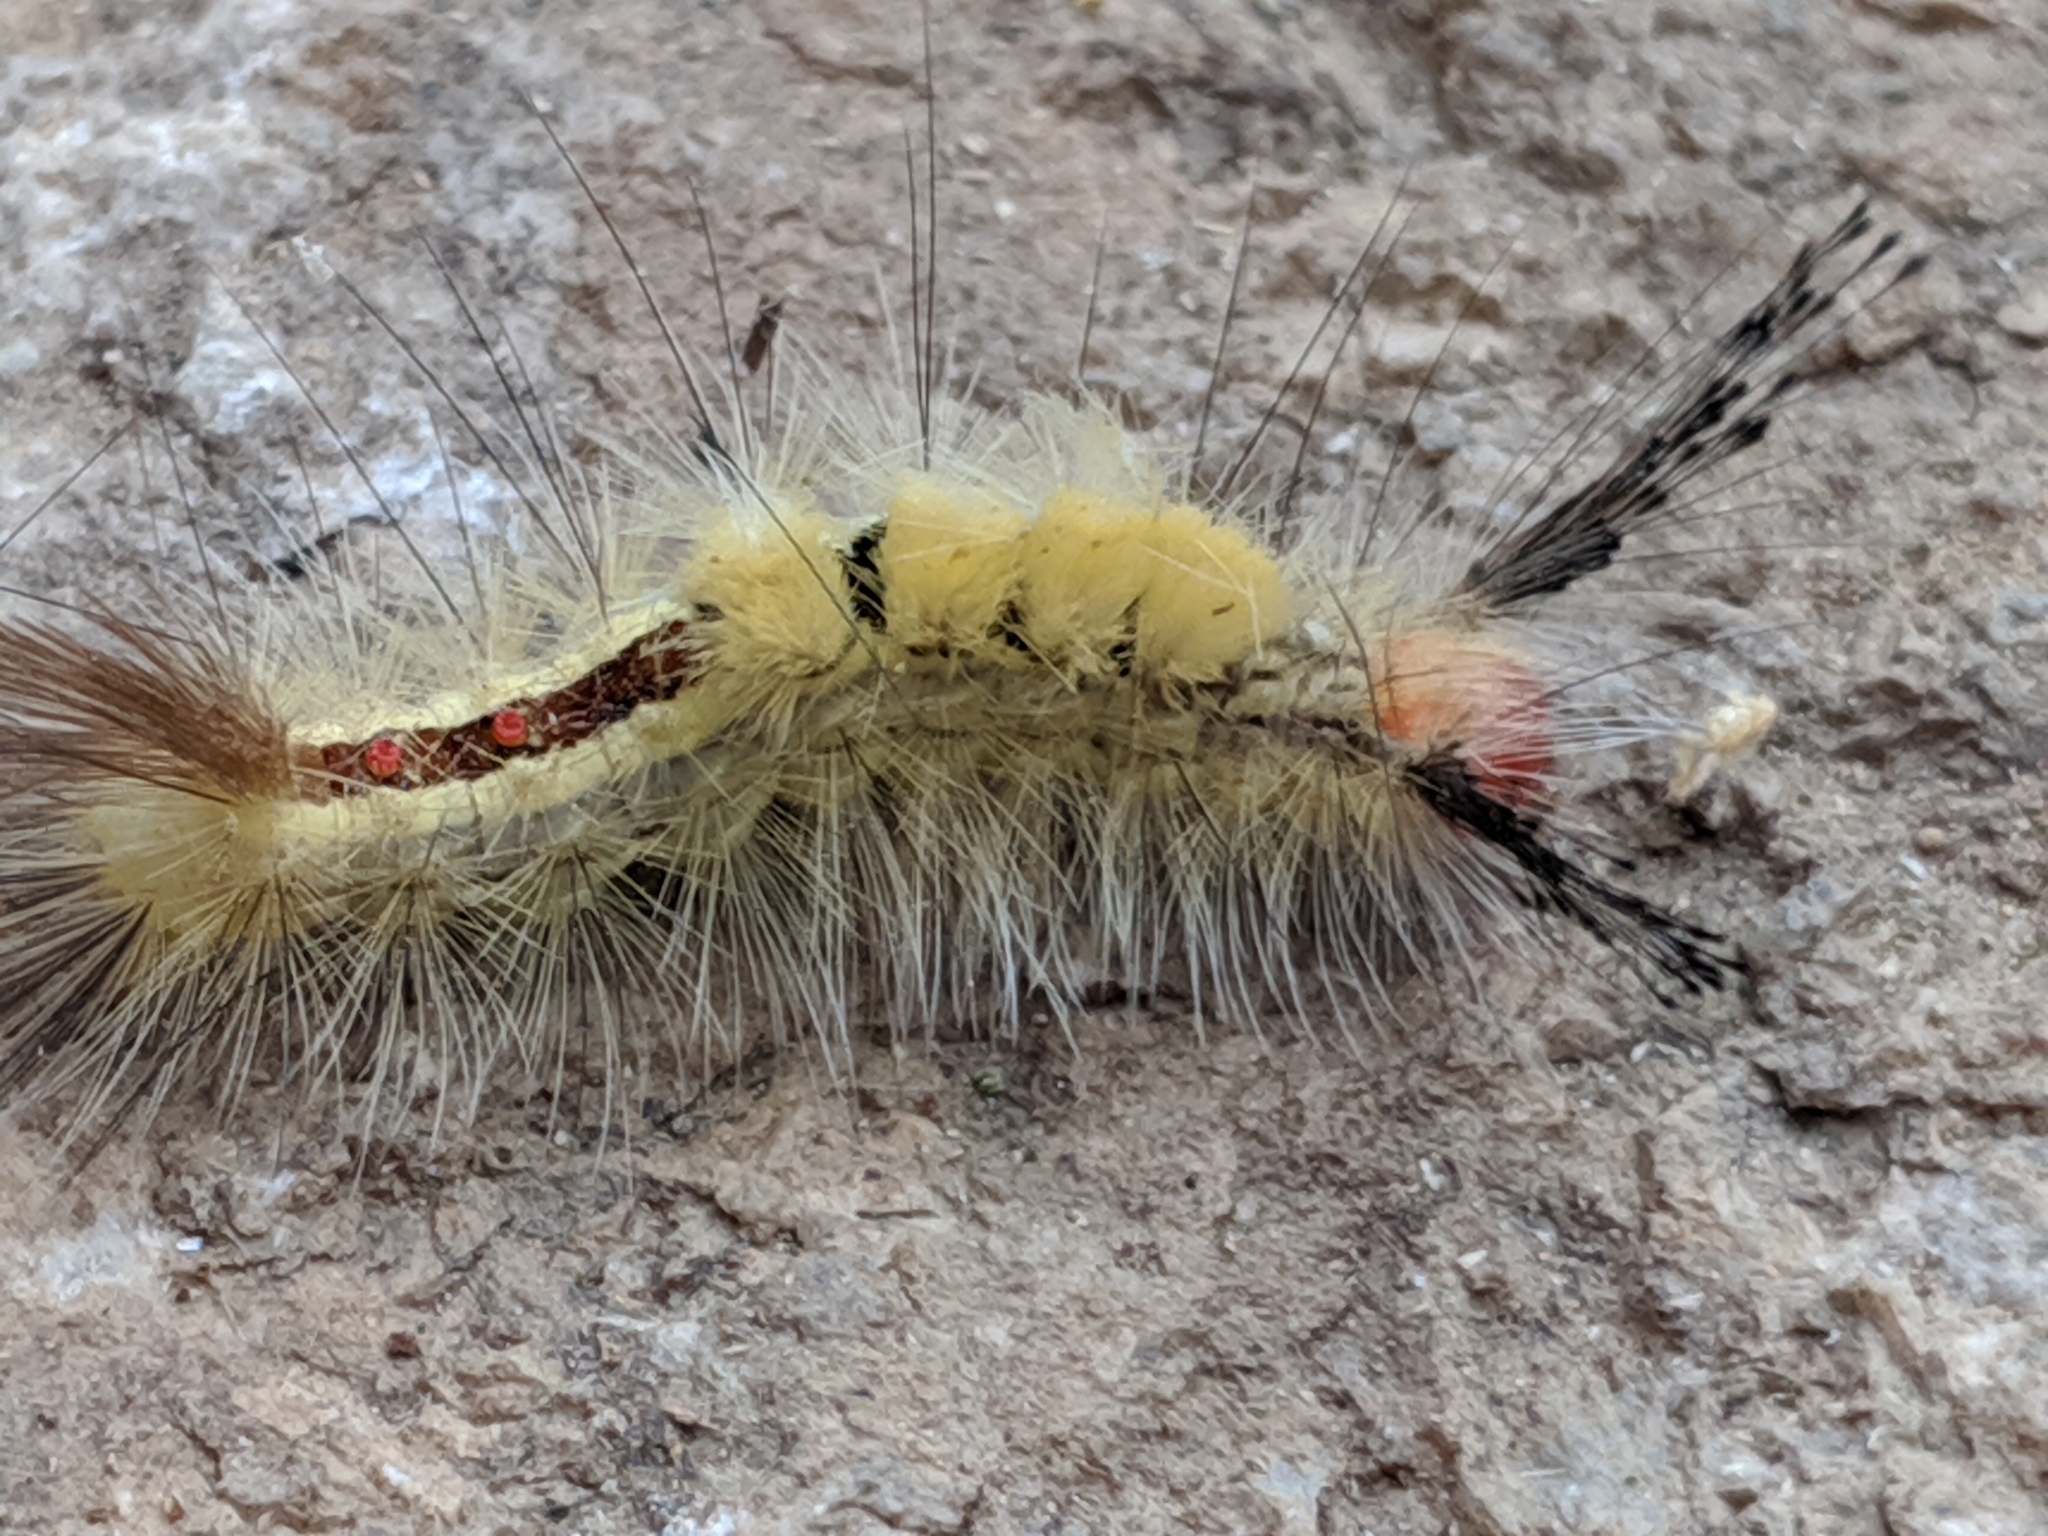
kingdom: Animalia
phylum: Arthropoda
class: Insecta
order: Lepidoptera
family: Erebidae
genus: Orgyia
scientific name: Orgyia leucostigma
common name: White-marked tussock moth
